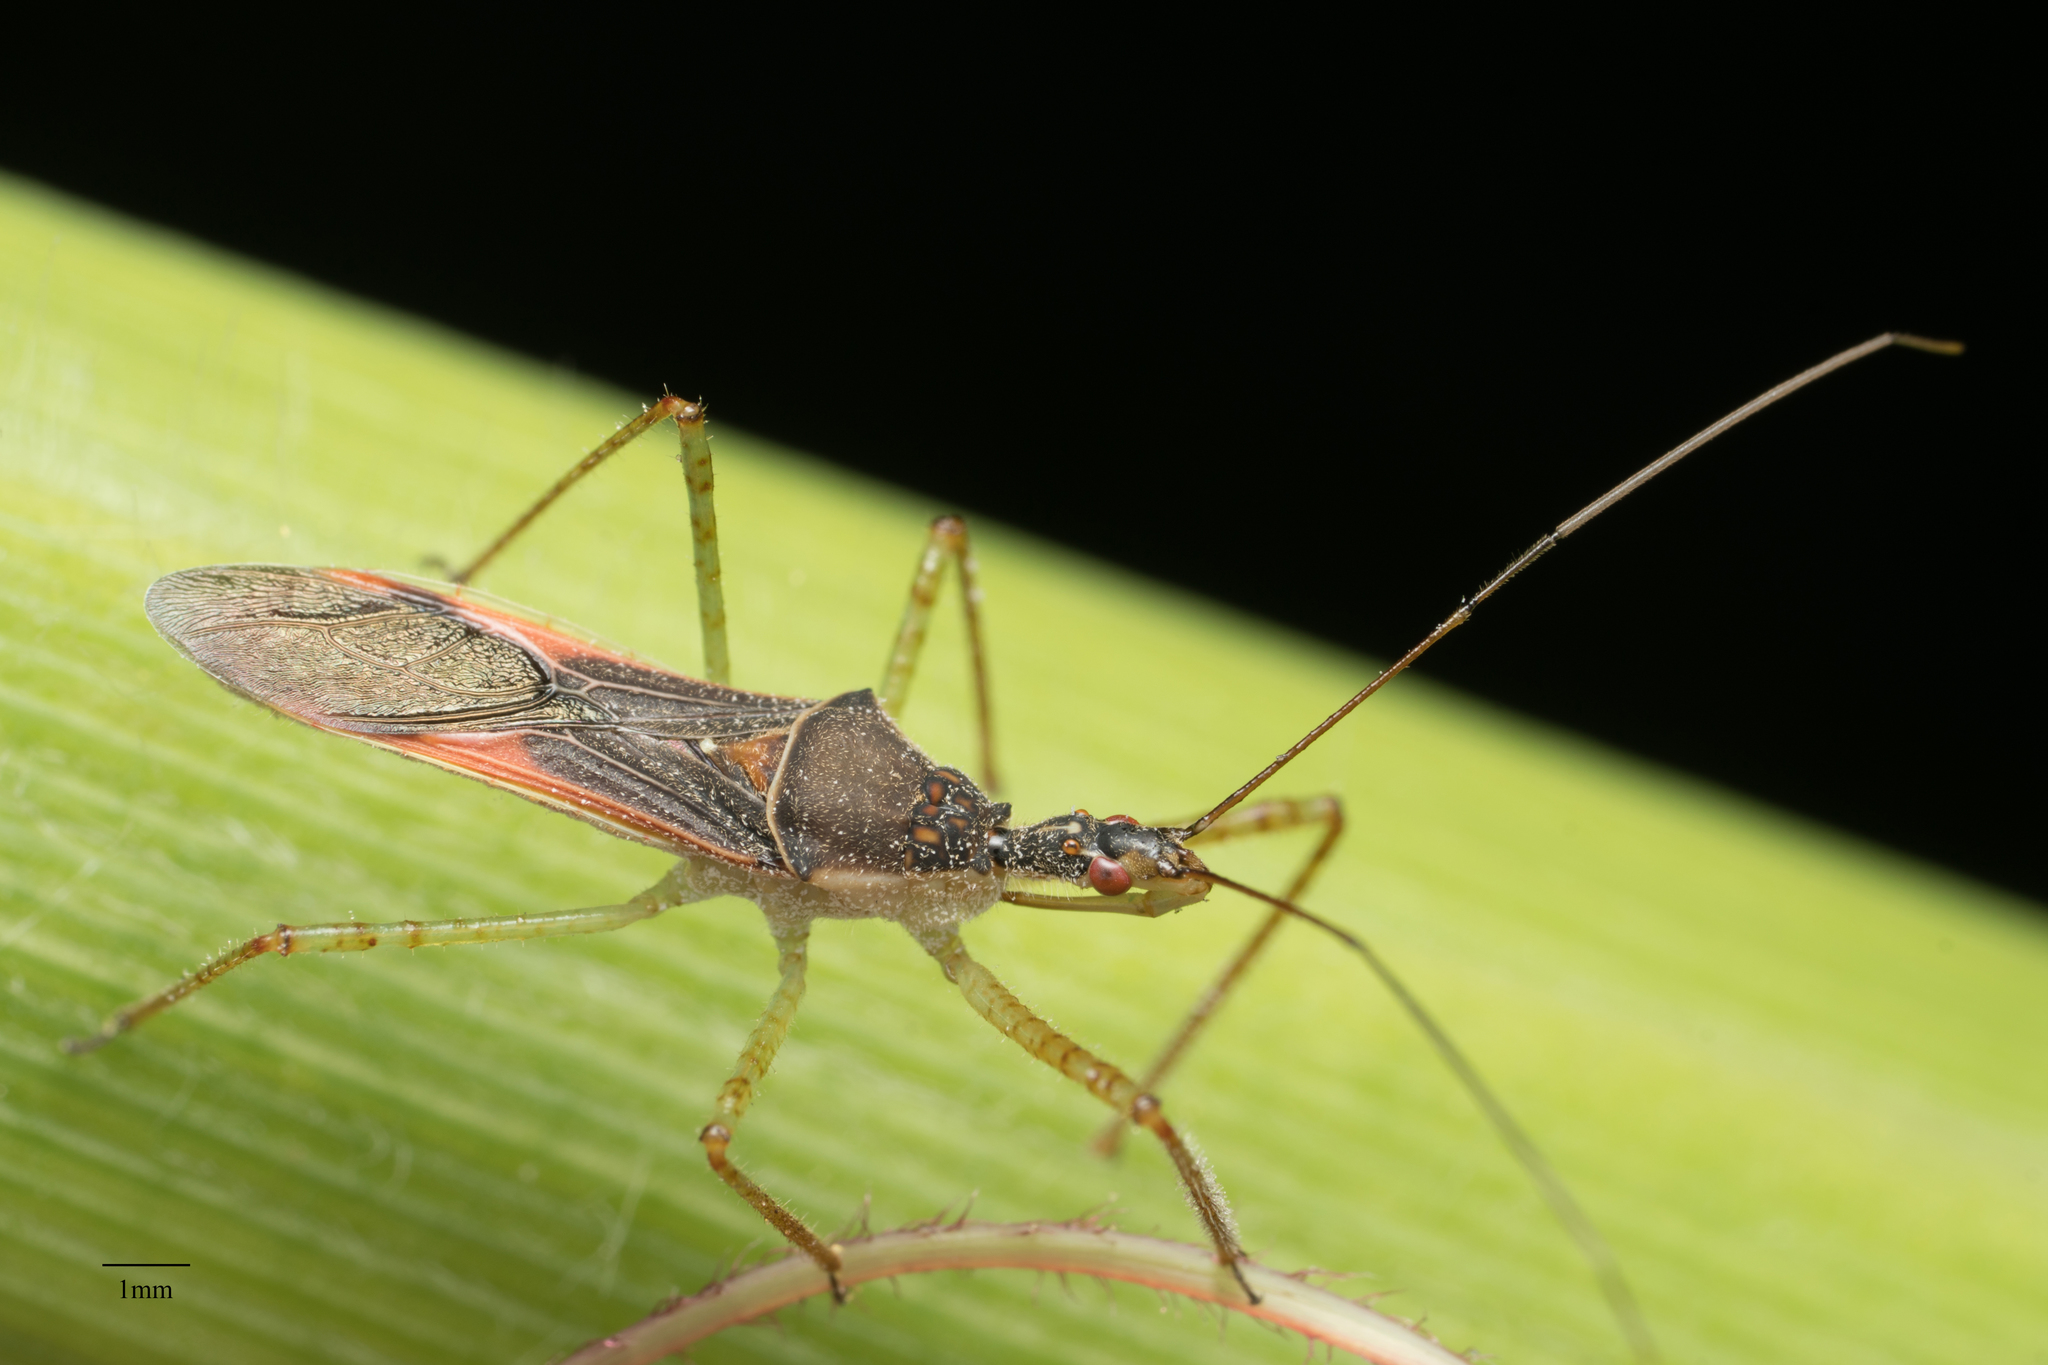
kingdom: Animalia
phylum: Arthropoda
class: Insecta
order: Hemiptera
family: Reduviidae
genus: Zelus
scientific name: Zelus renardii
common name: Assassin bug
